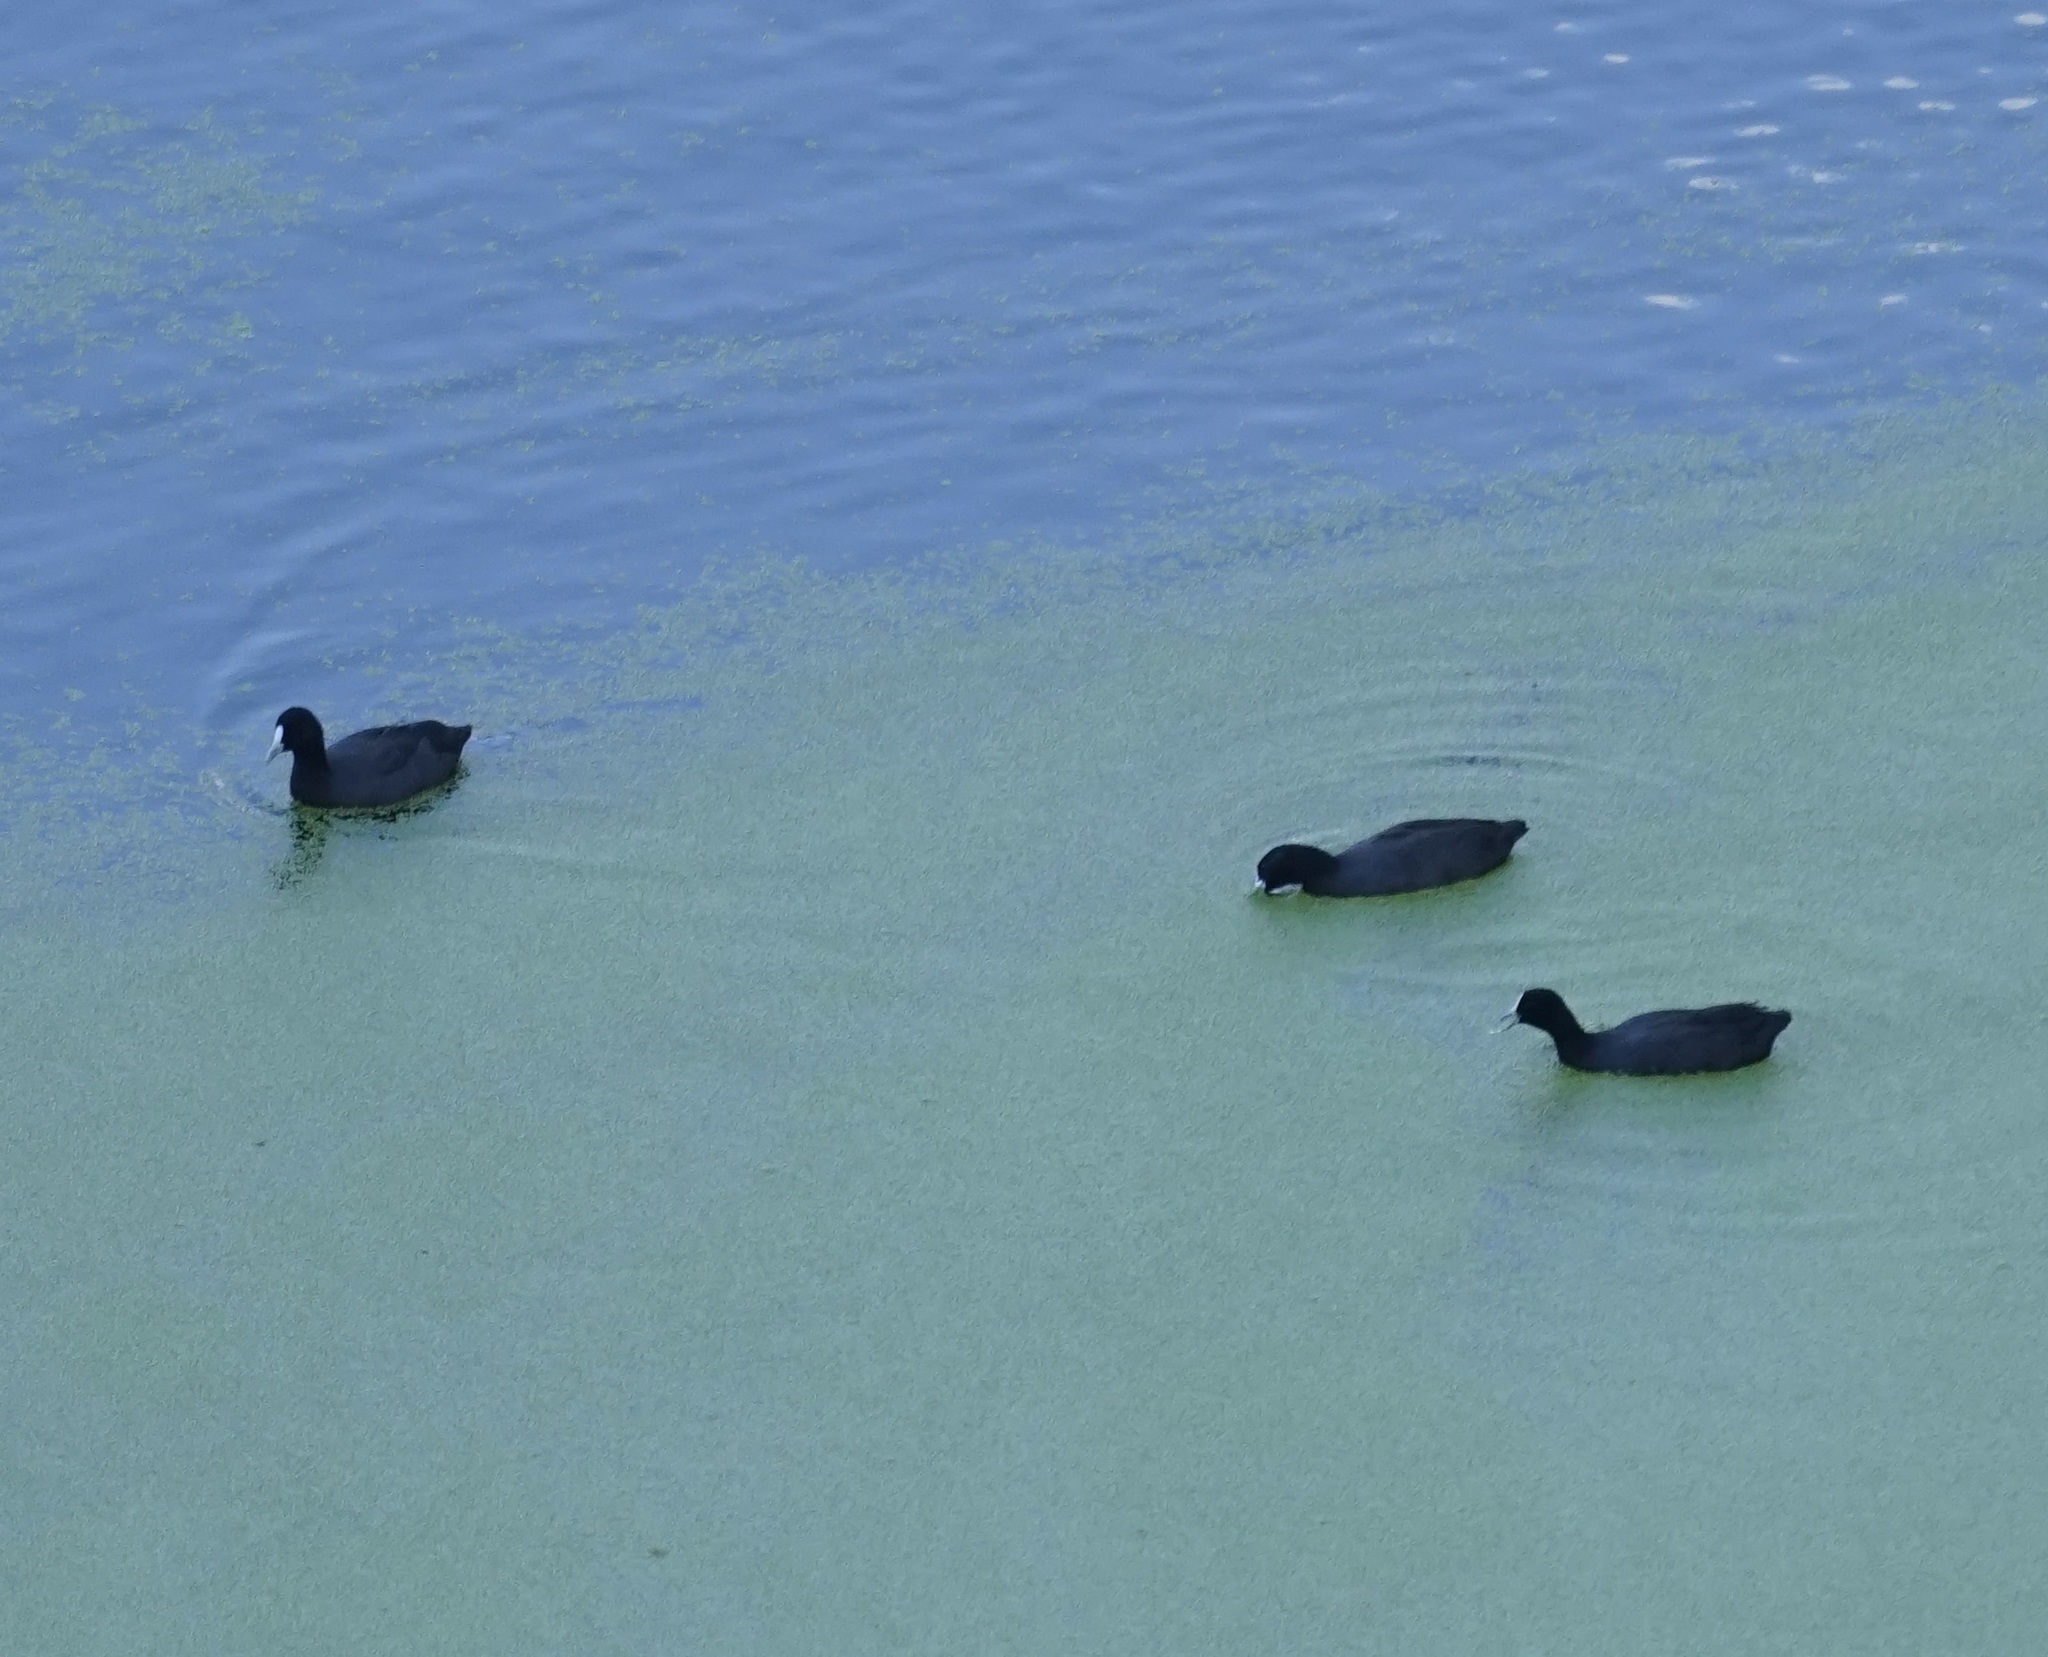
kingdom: Animalia
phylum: Chordata
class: Aves
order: Gruiformes
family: Rallidae
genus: Fulica
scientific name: Fulica atra
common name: Eurasian coot
